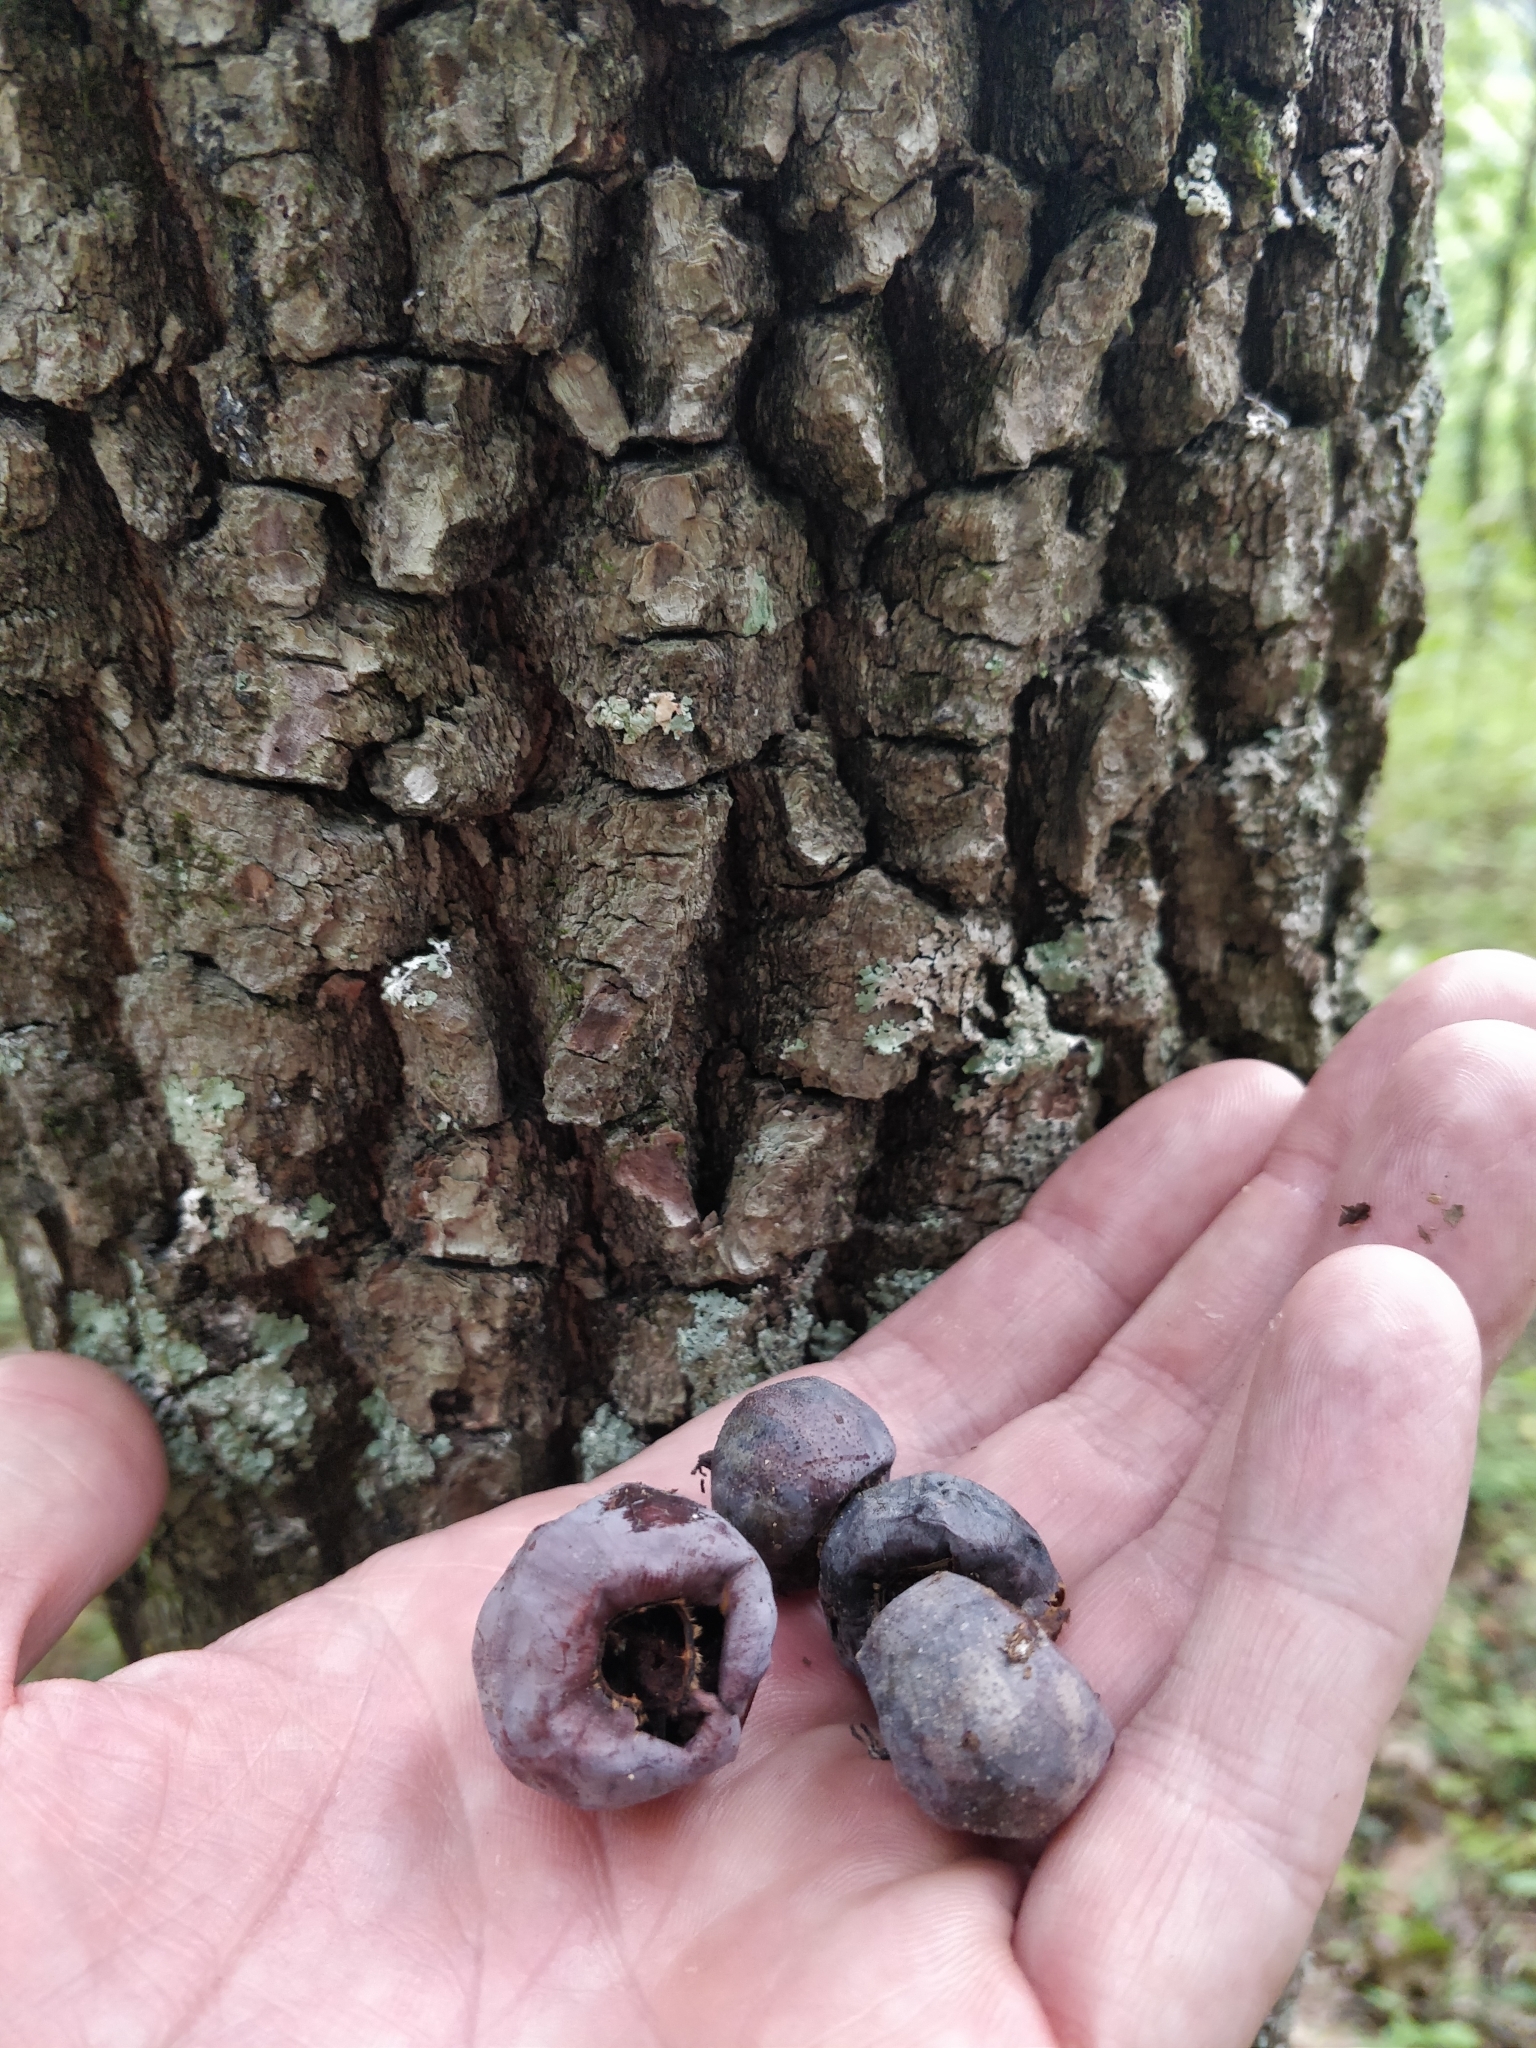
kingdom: Plantae
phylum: Tracheophyta
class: Magnoliopsida
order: Ericales
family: Ebenaceae
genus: Diospyros
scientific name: Diospyros virginiana
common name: Persimmon
